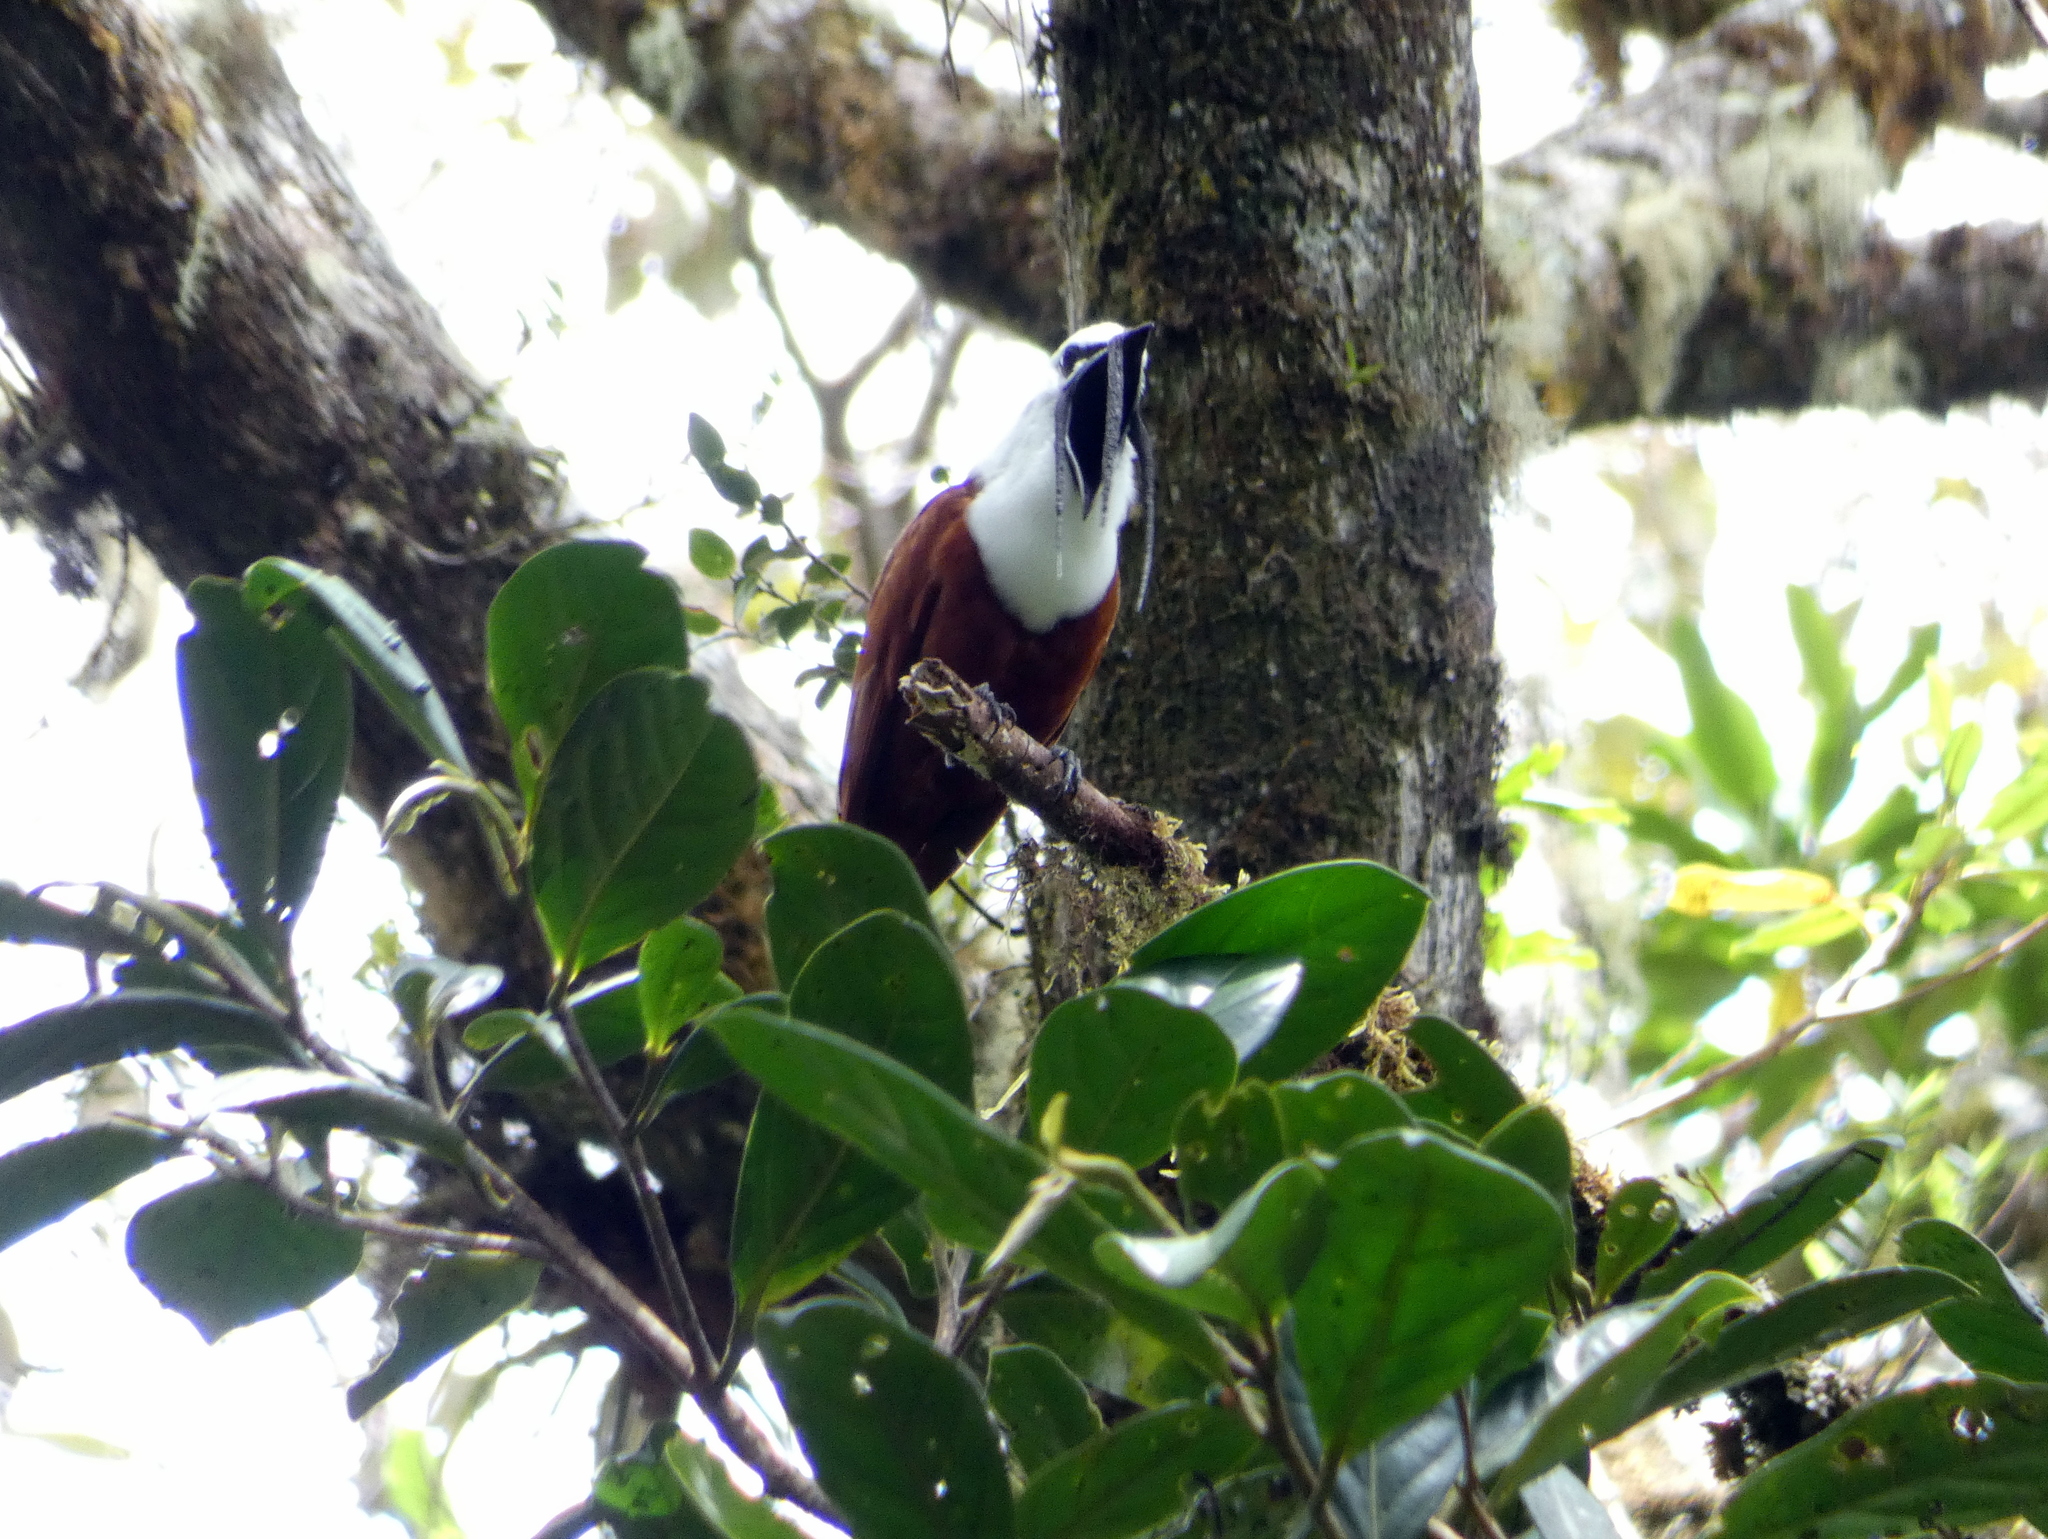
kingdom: Animalia
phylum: Chordata
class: Aves
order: Passeriformes
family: Cotingidae
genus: Procnias
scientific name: Procnias tricarunculatus
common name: Three-wattled bellbird
